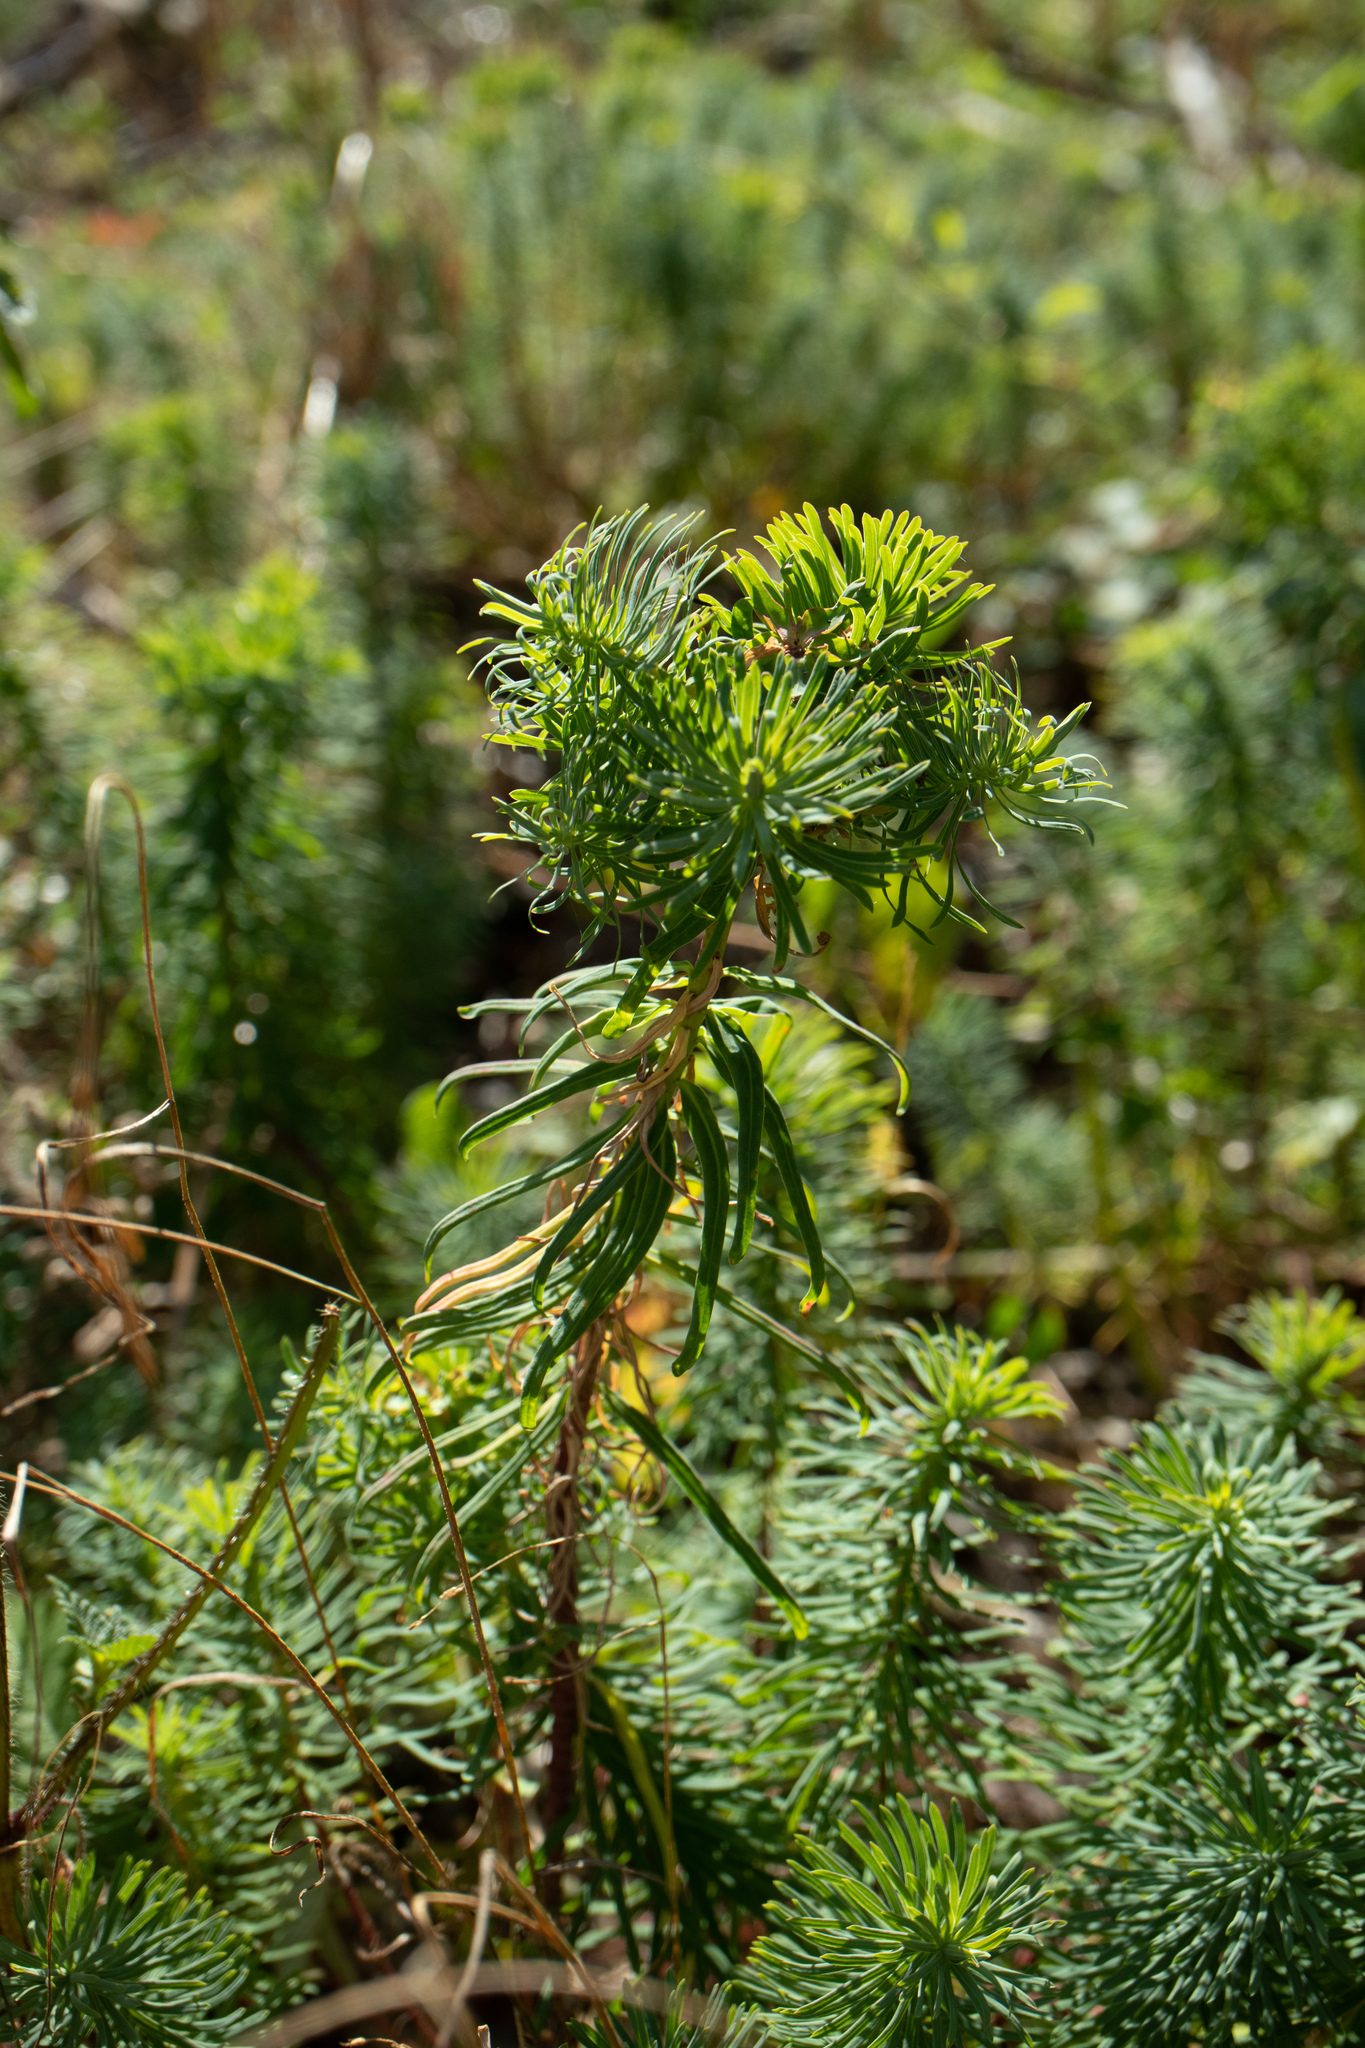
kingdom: Plantae
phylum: Tracheophyta
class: Magnoliopsida
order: Malpighiales
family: Euphorbiaceae
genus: Euphorbia
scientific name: Euphorbia cyparissias
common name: Cypress spurge
